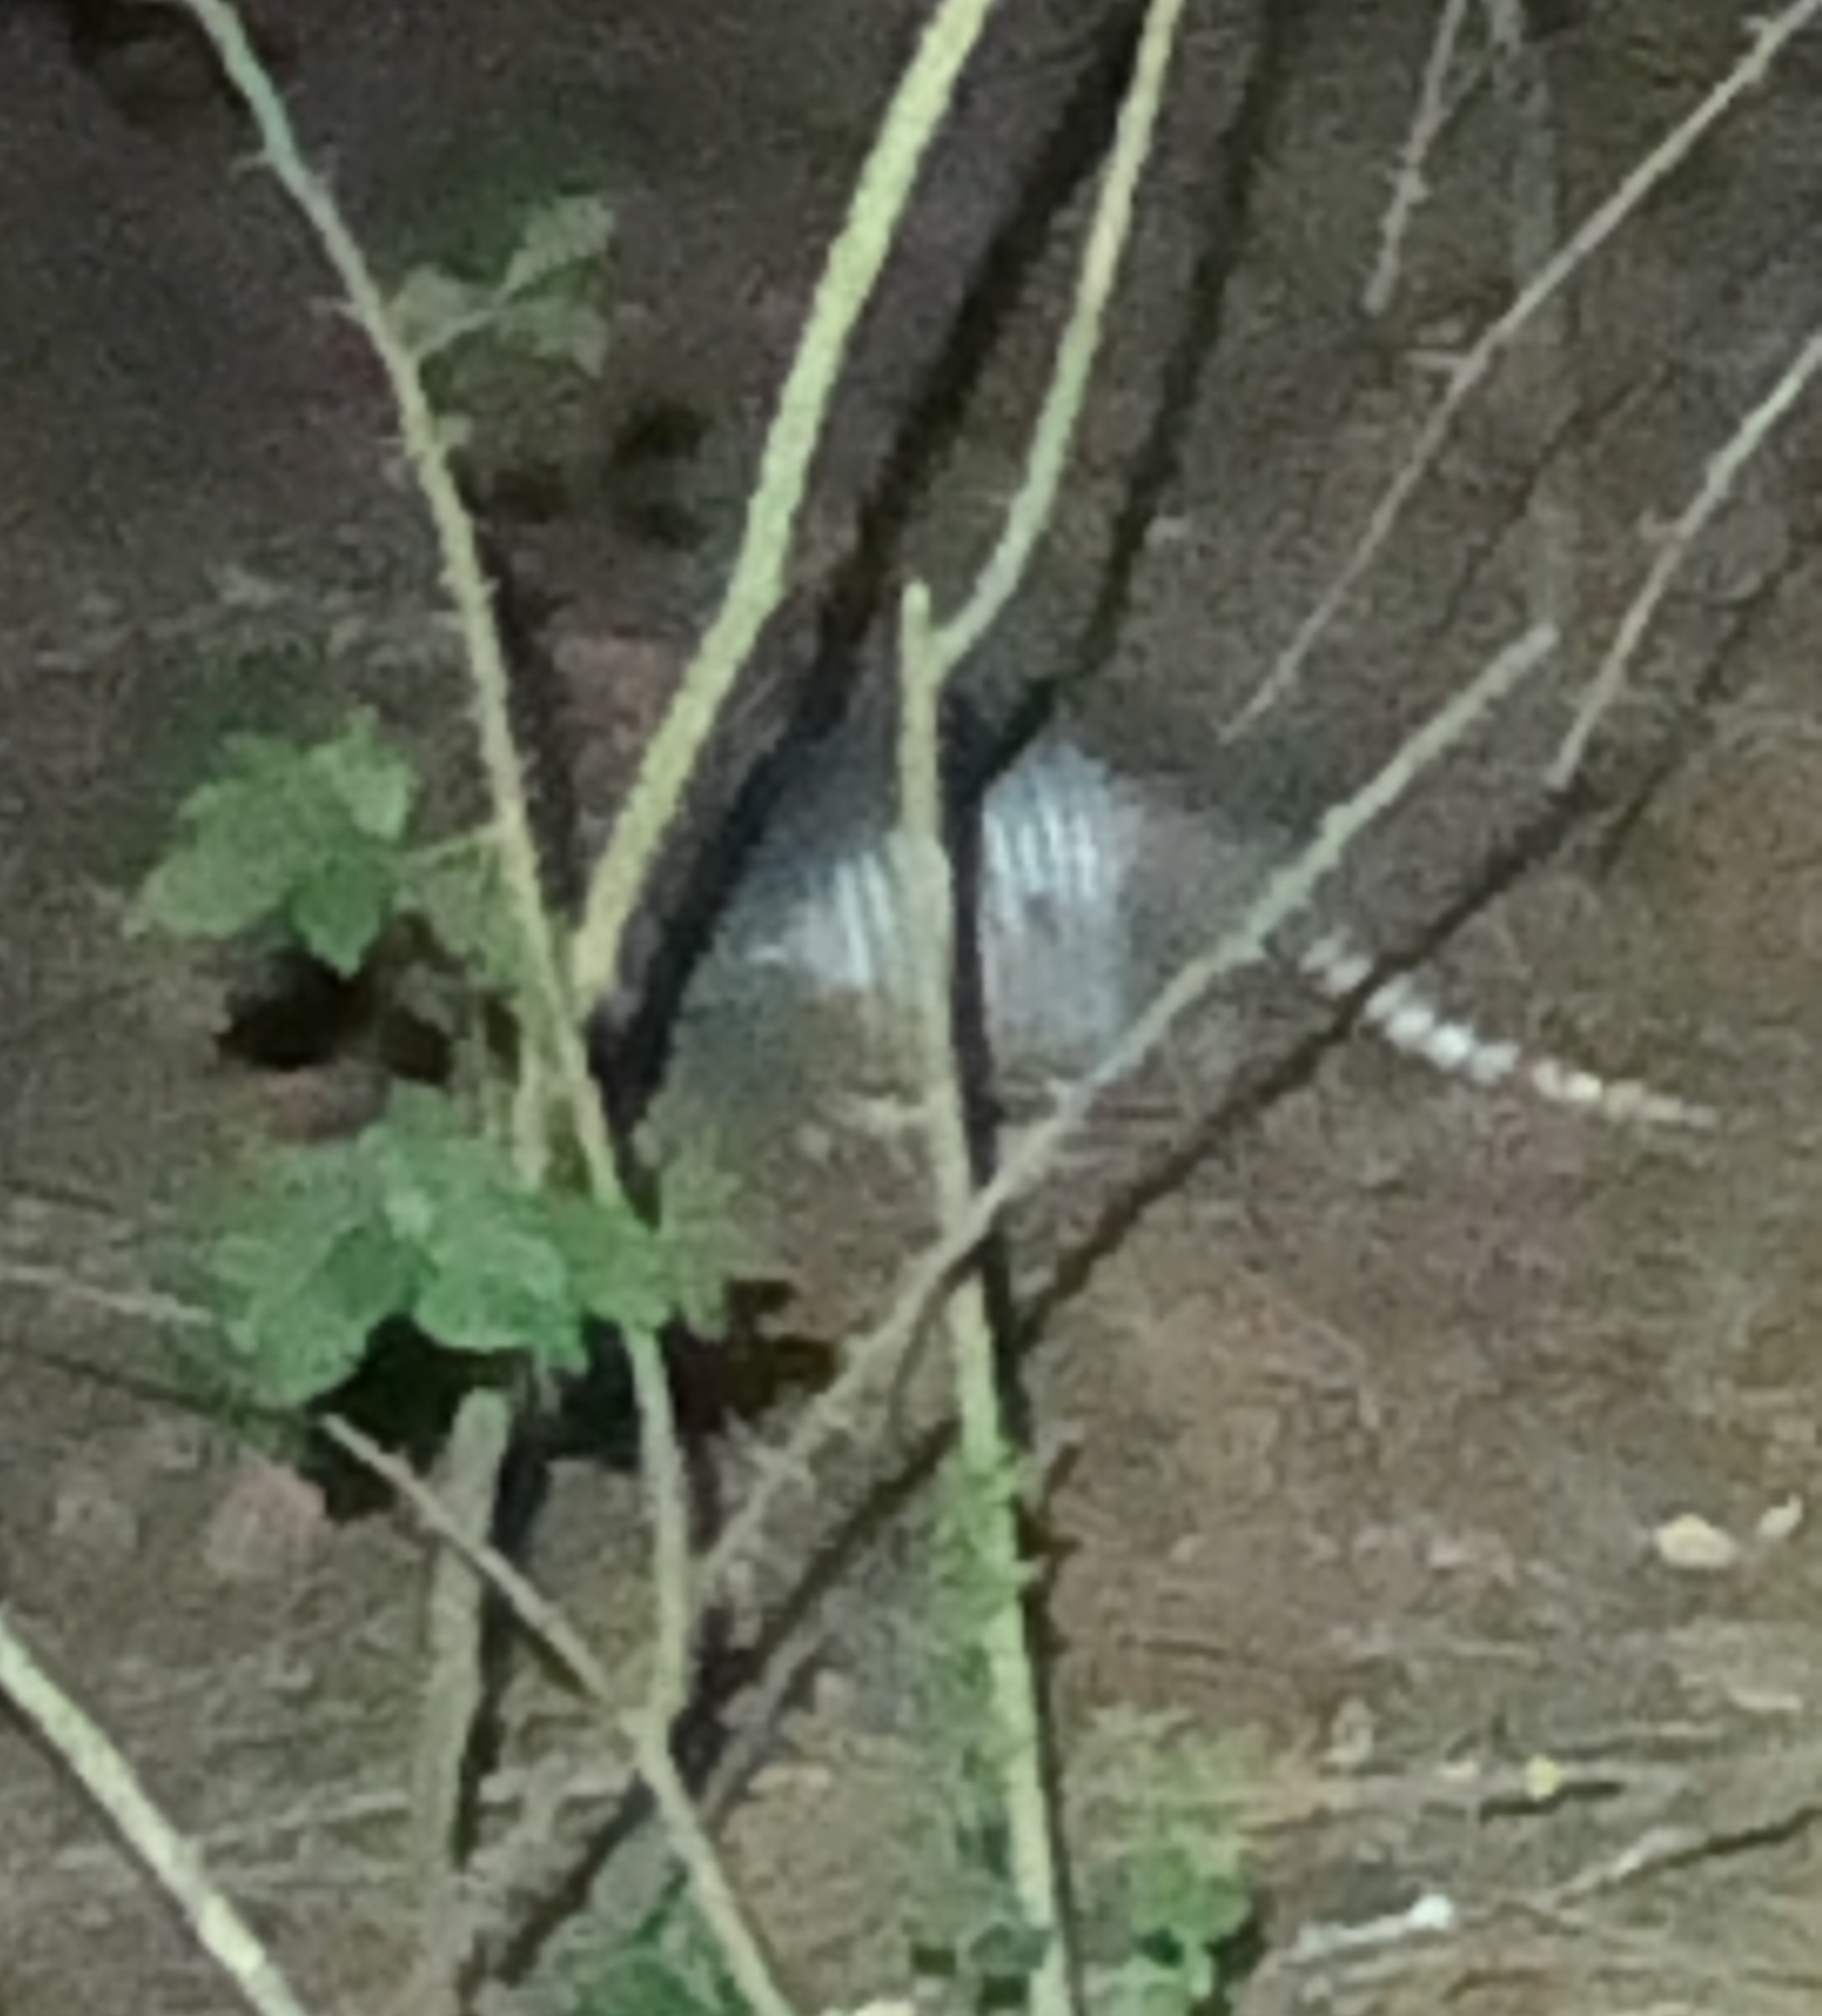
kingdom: Animalia
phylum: Chordata
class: Mammalia
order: Cingulata
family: Dasypodidae
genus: Dasypus
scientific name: Dasypus novemcinctus
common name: Nine-banded armadillo
